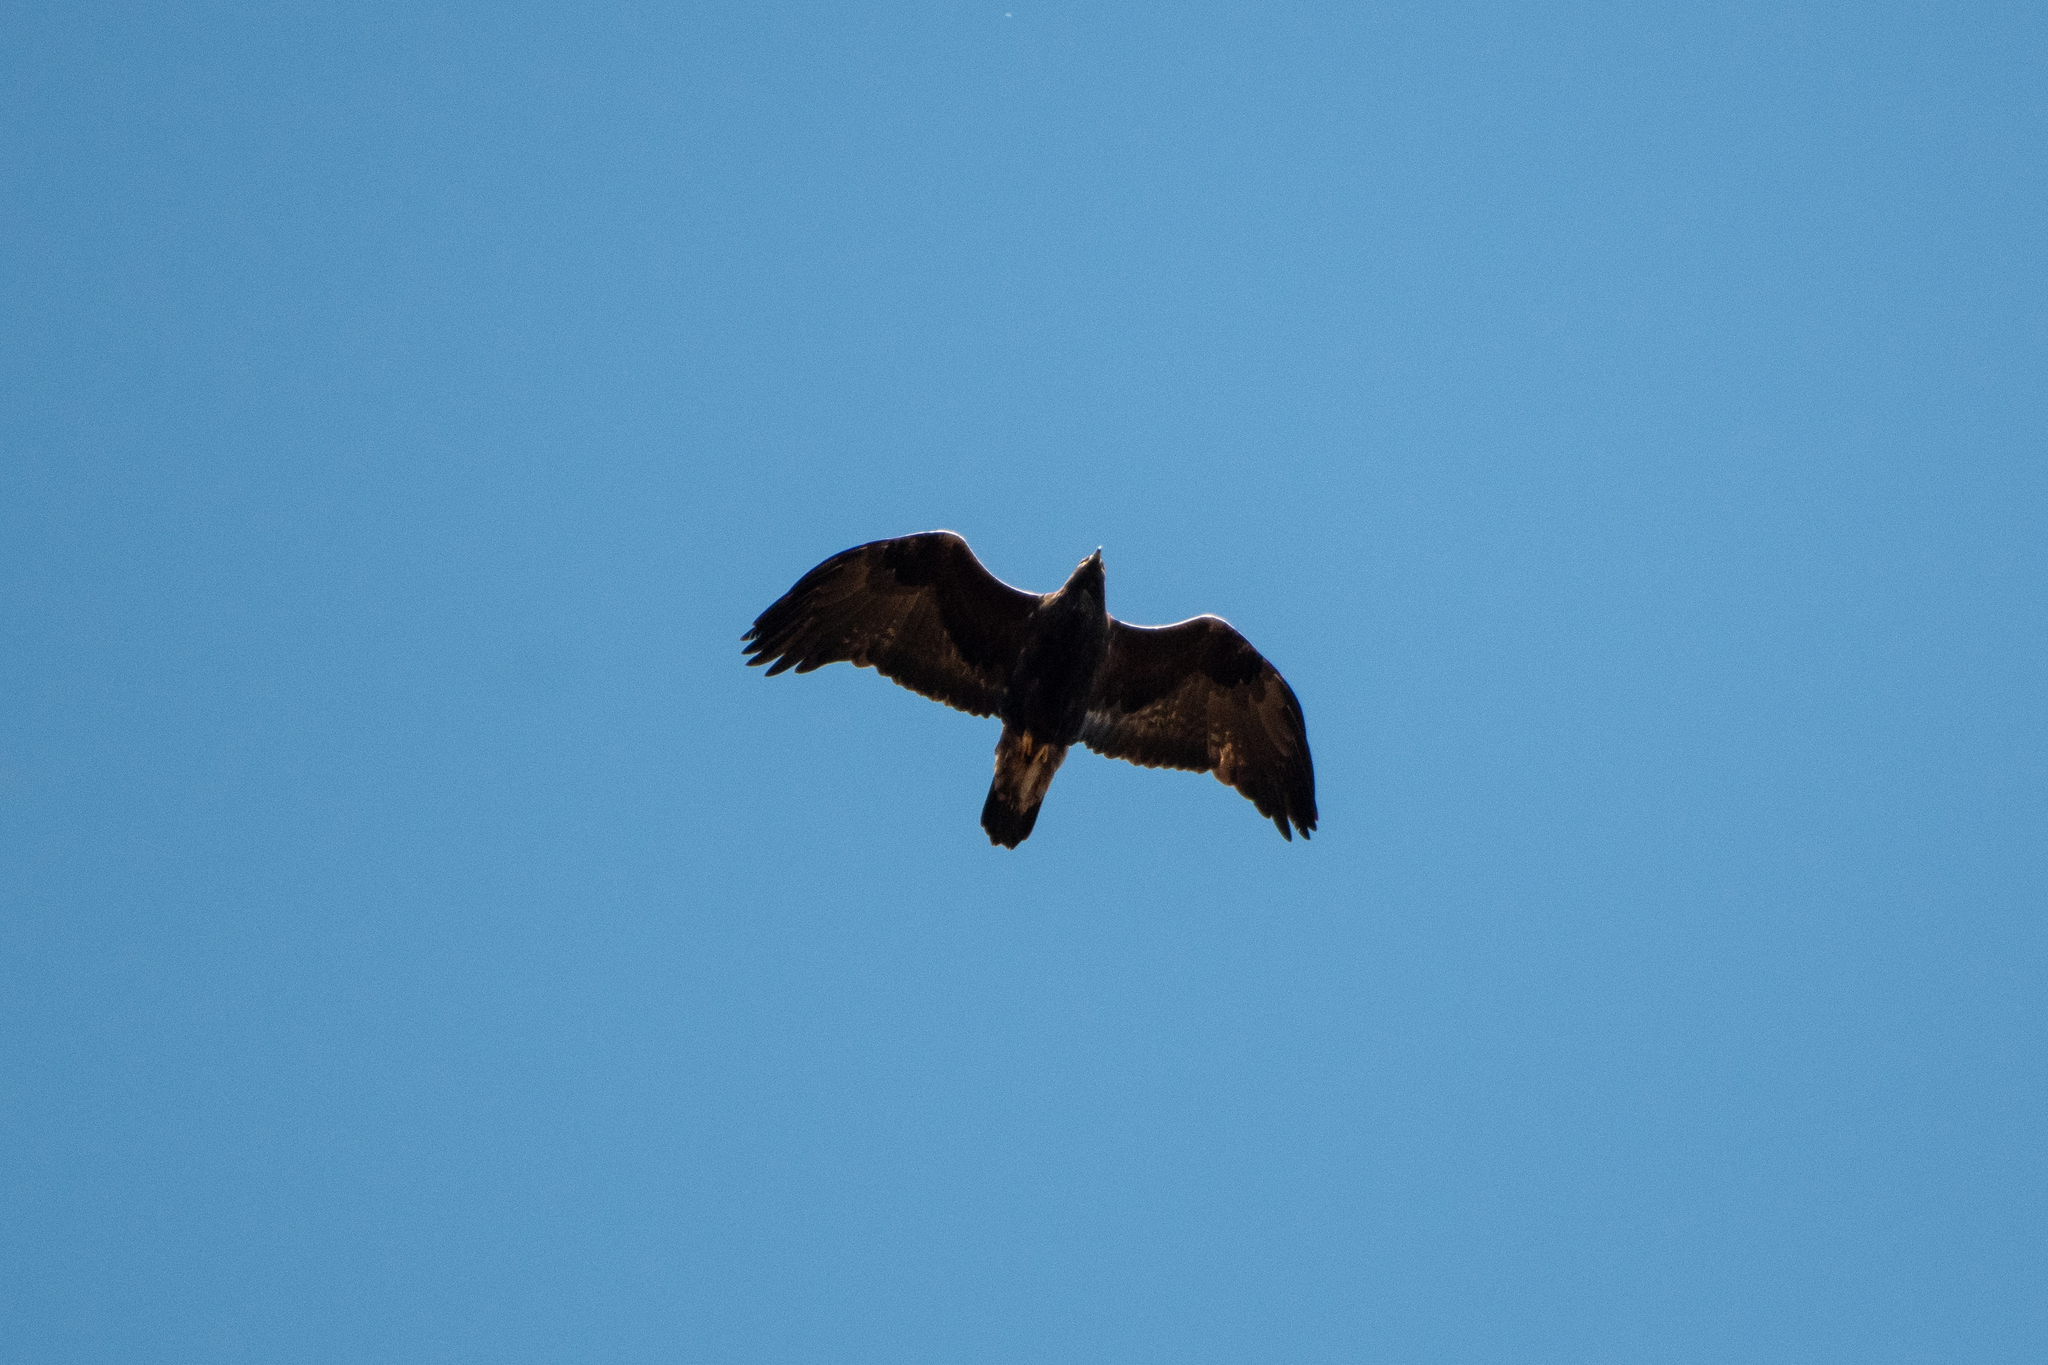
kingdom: Animalia
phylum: Chordata
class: Aves
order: Accipitriformes
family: Accipitridae
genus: Aquila
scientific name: Aquila chrysaetos
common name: Golden eagle
